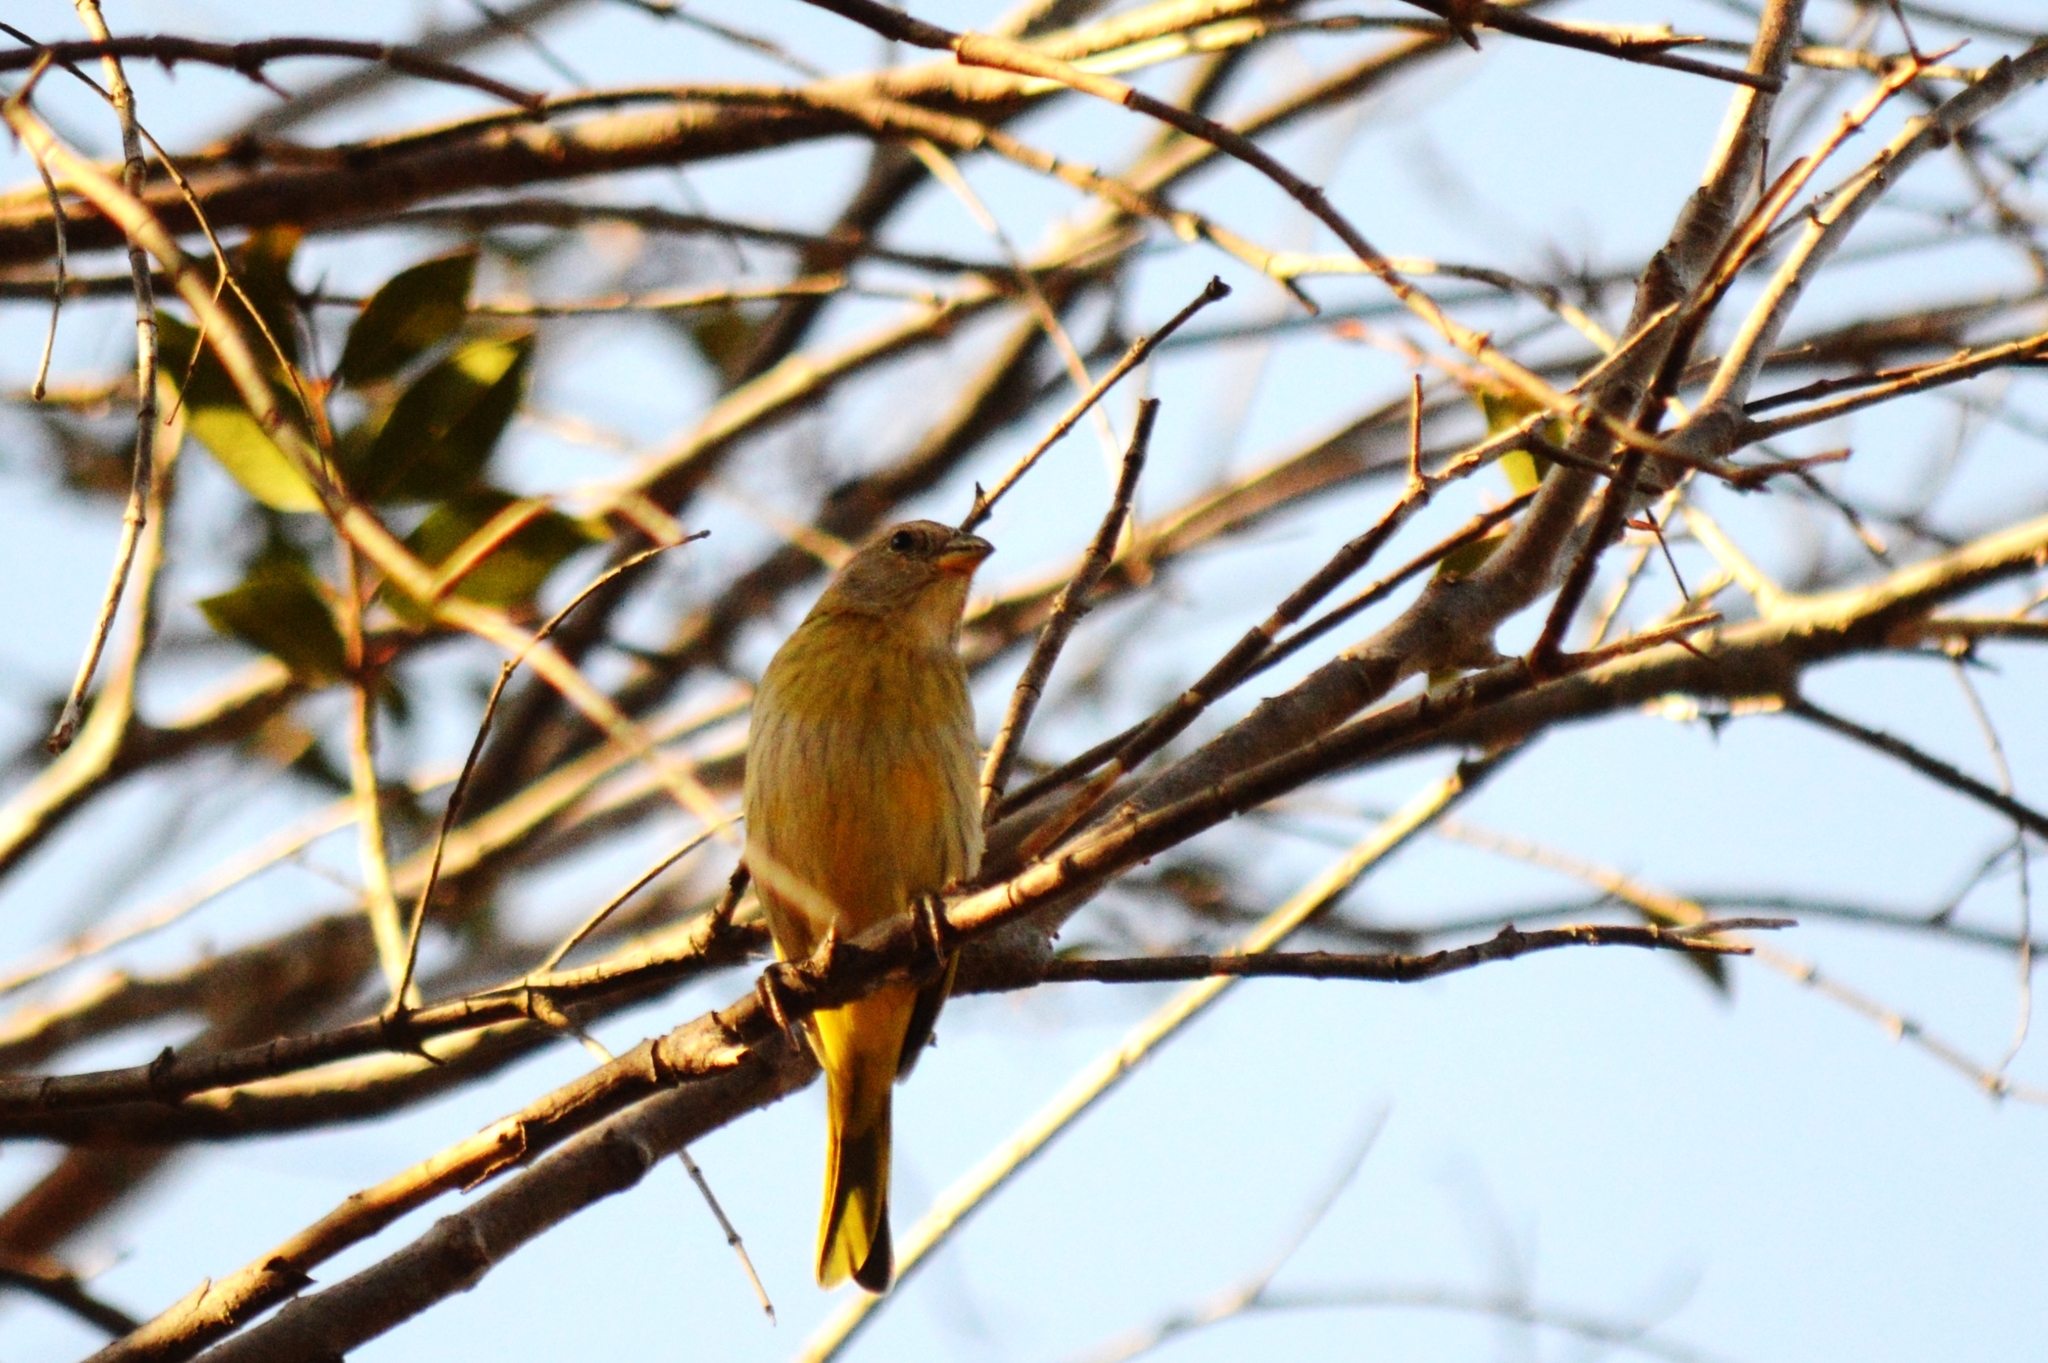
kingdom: Animalia
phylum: Chordata
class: Aves
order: Passeriformes
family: Thraupidae
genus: Sicalis
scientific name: Sicalis flaveola
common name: Saffron finch
